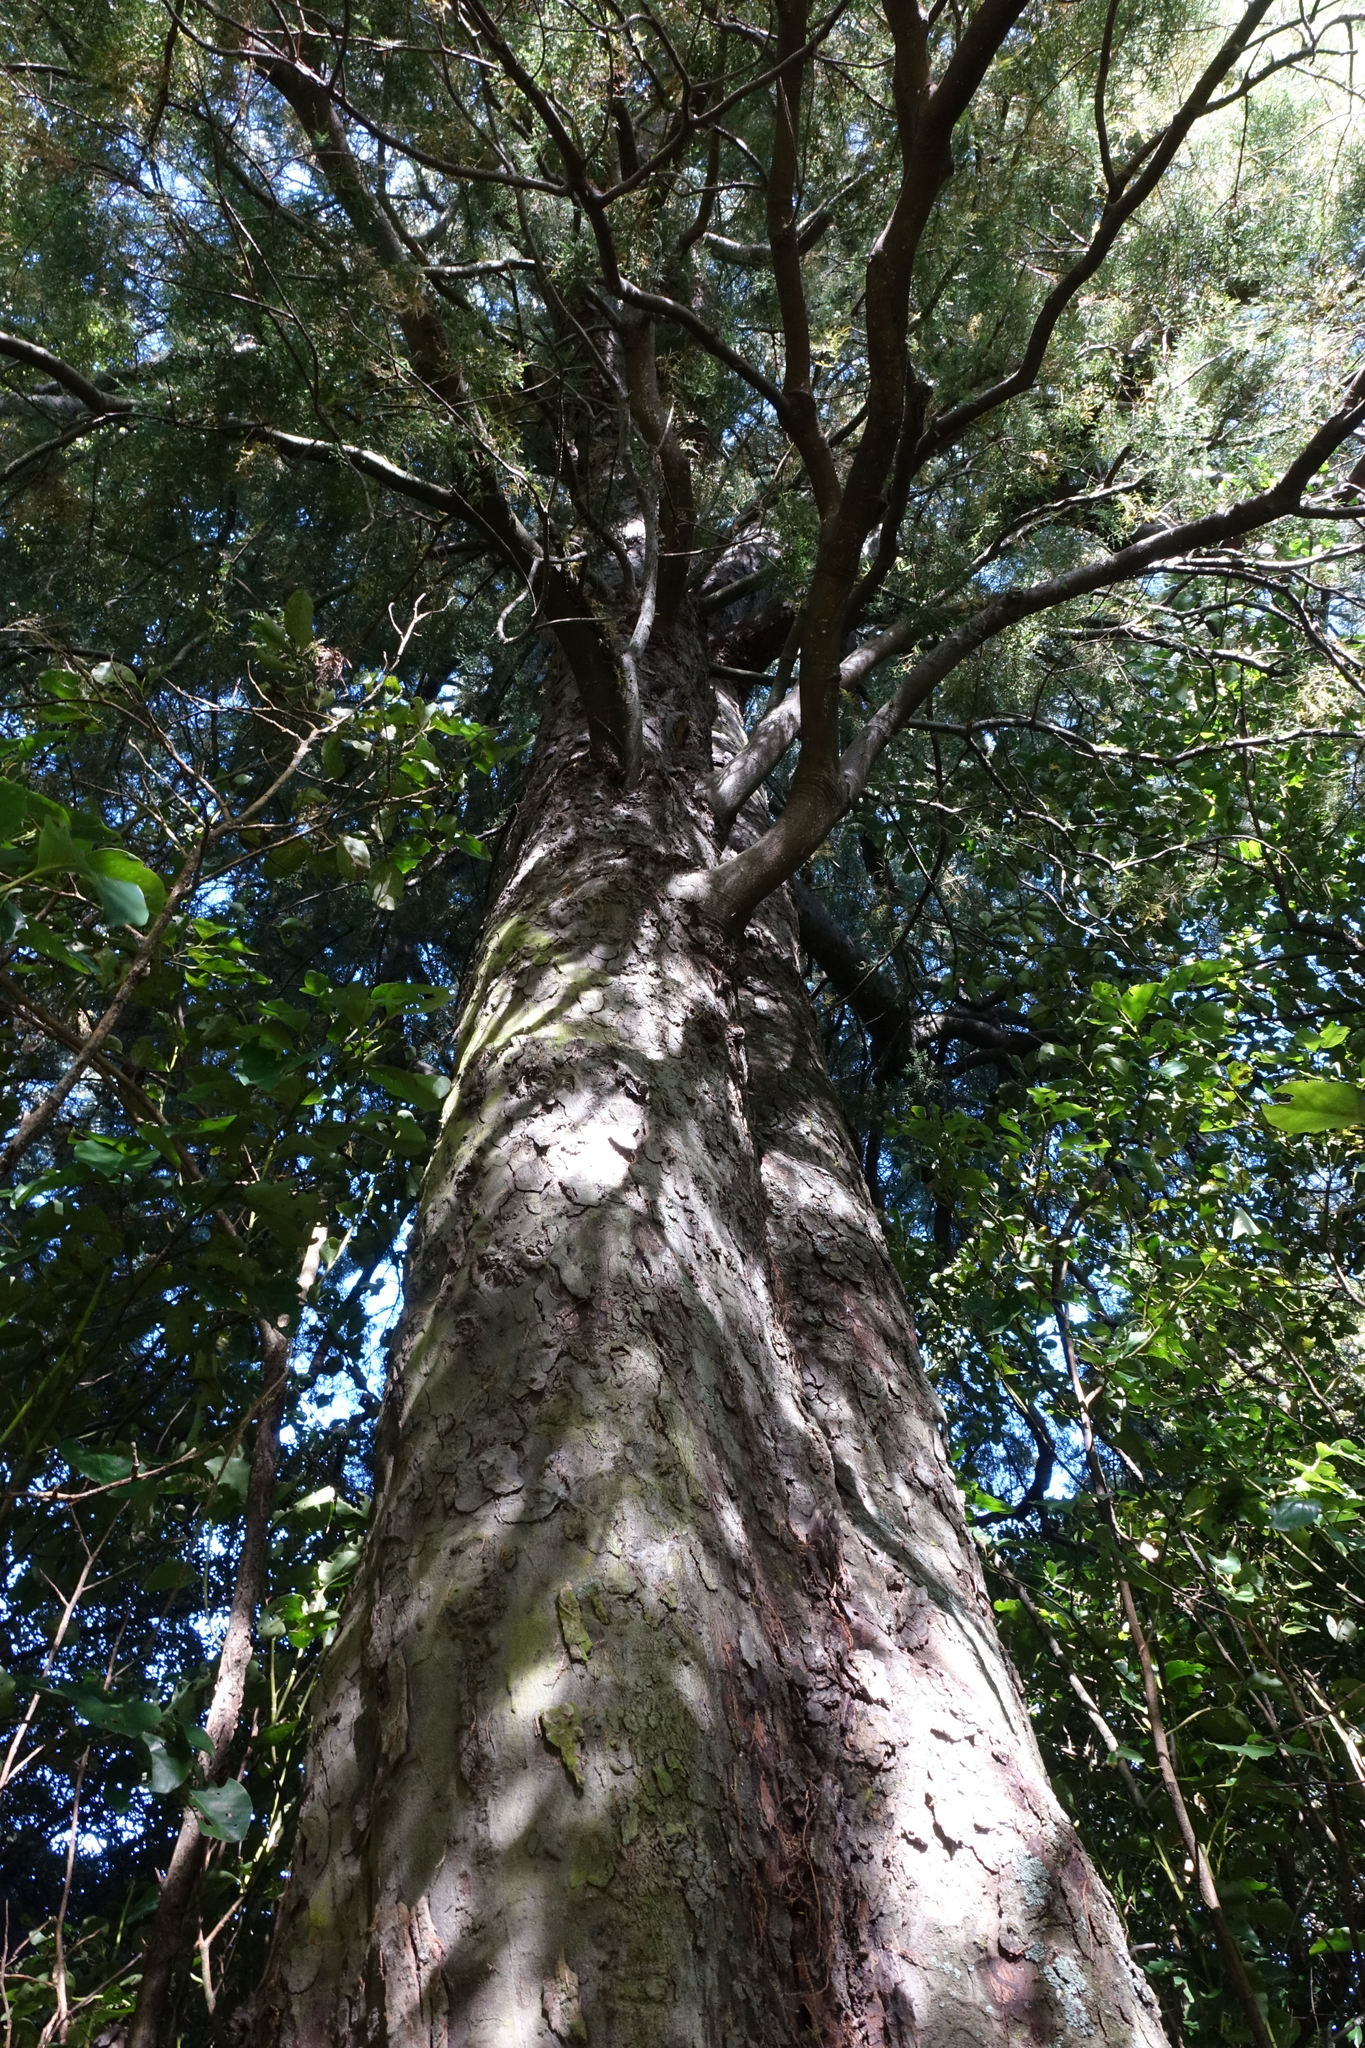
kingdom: Plantae
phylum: Tracheophyta
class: Pinopsida
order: Pinales
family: Podocarpaceae
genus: Dacrycarpus
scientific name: Dacrycarpus dacrydioides
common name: White pine
